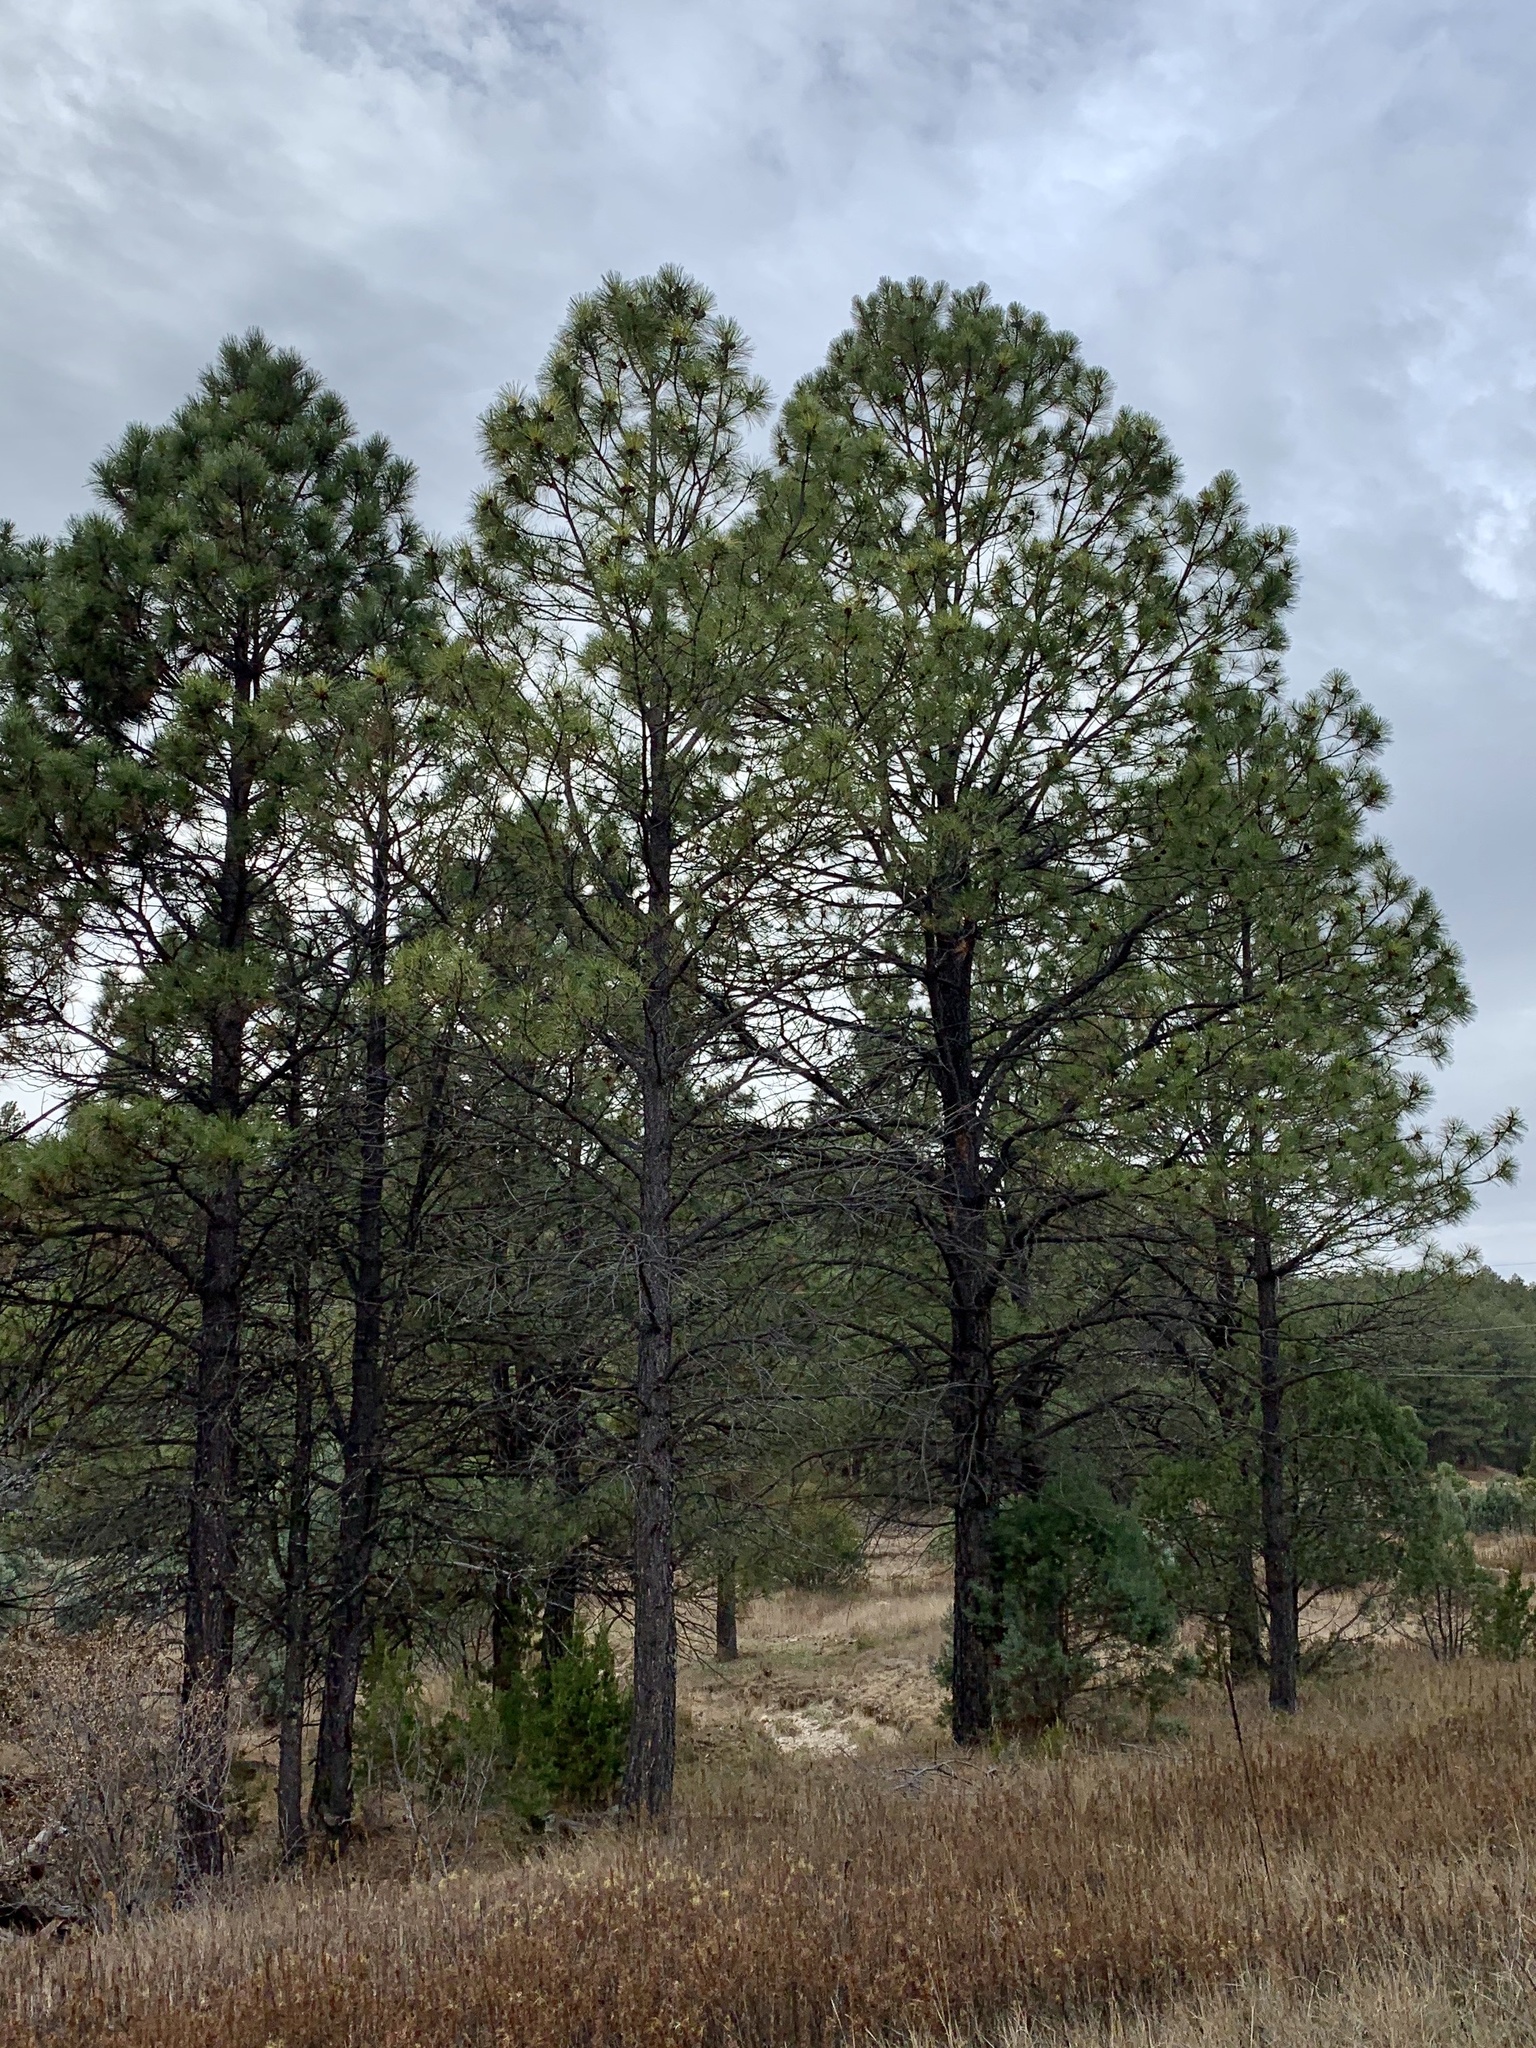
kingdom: Plantae
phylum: Tracheophyta
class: Pinopsida
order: Pinales
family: Pinaceae
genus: Pinus
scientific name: Pinus ponderosa
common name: Western yellow-pine
